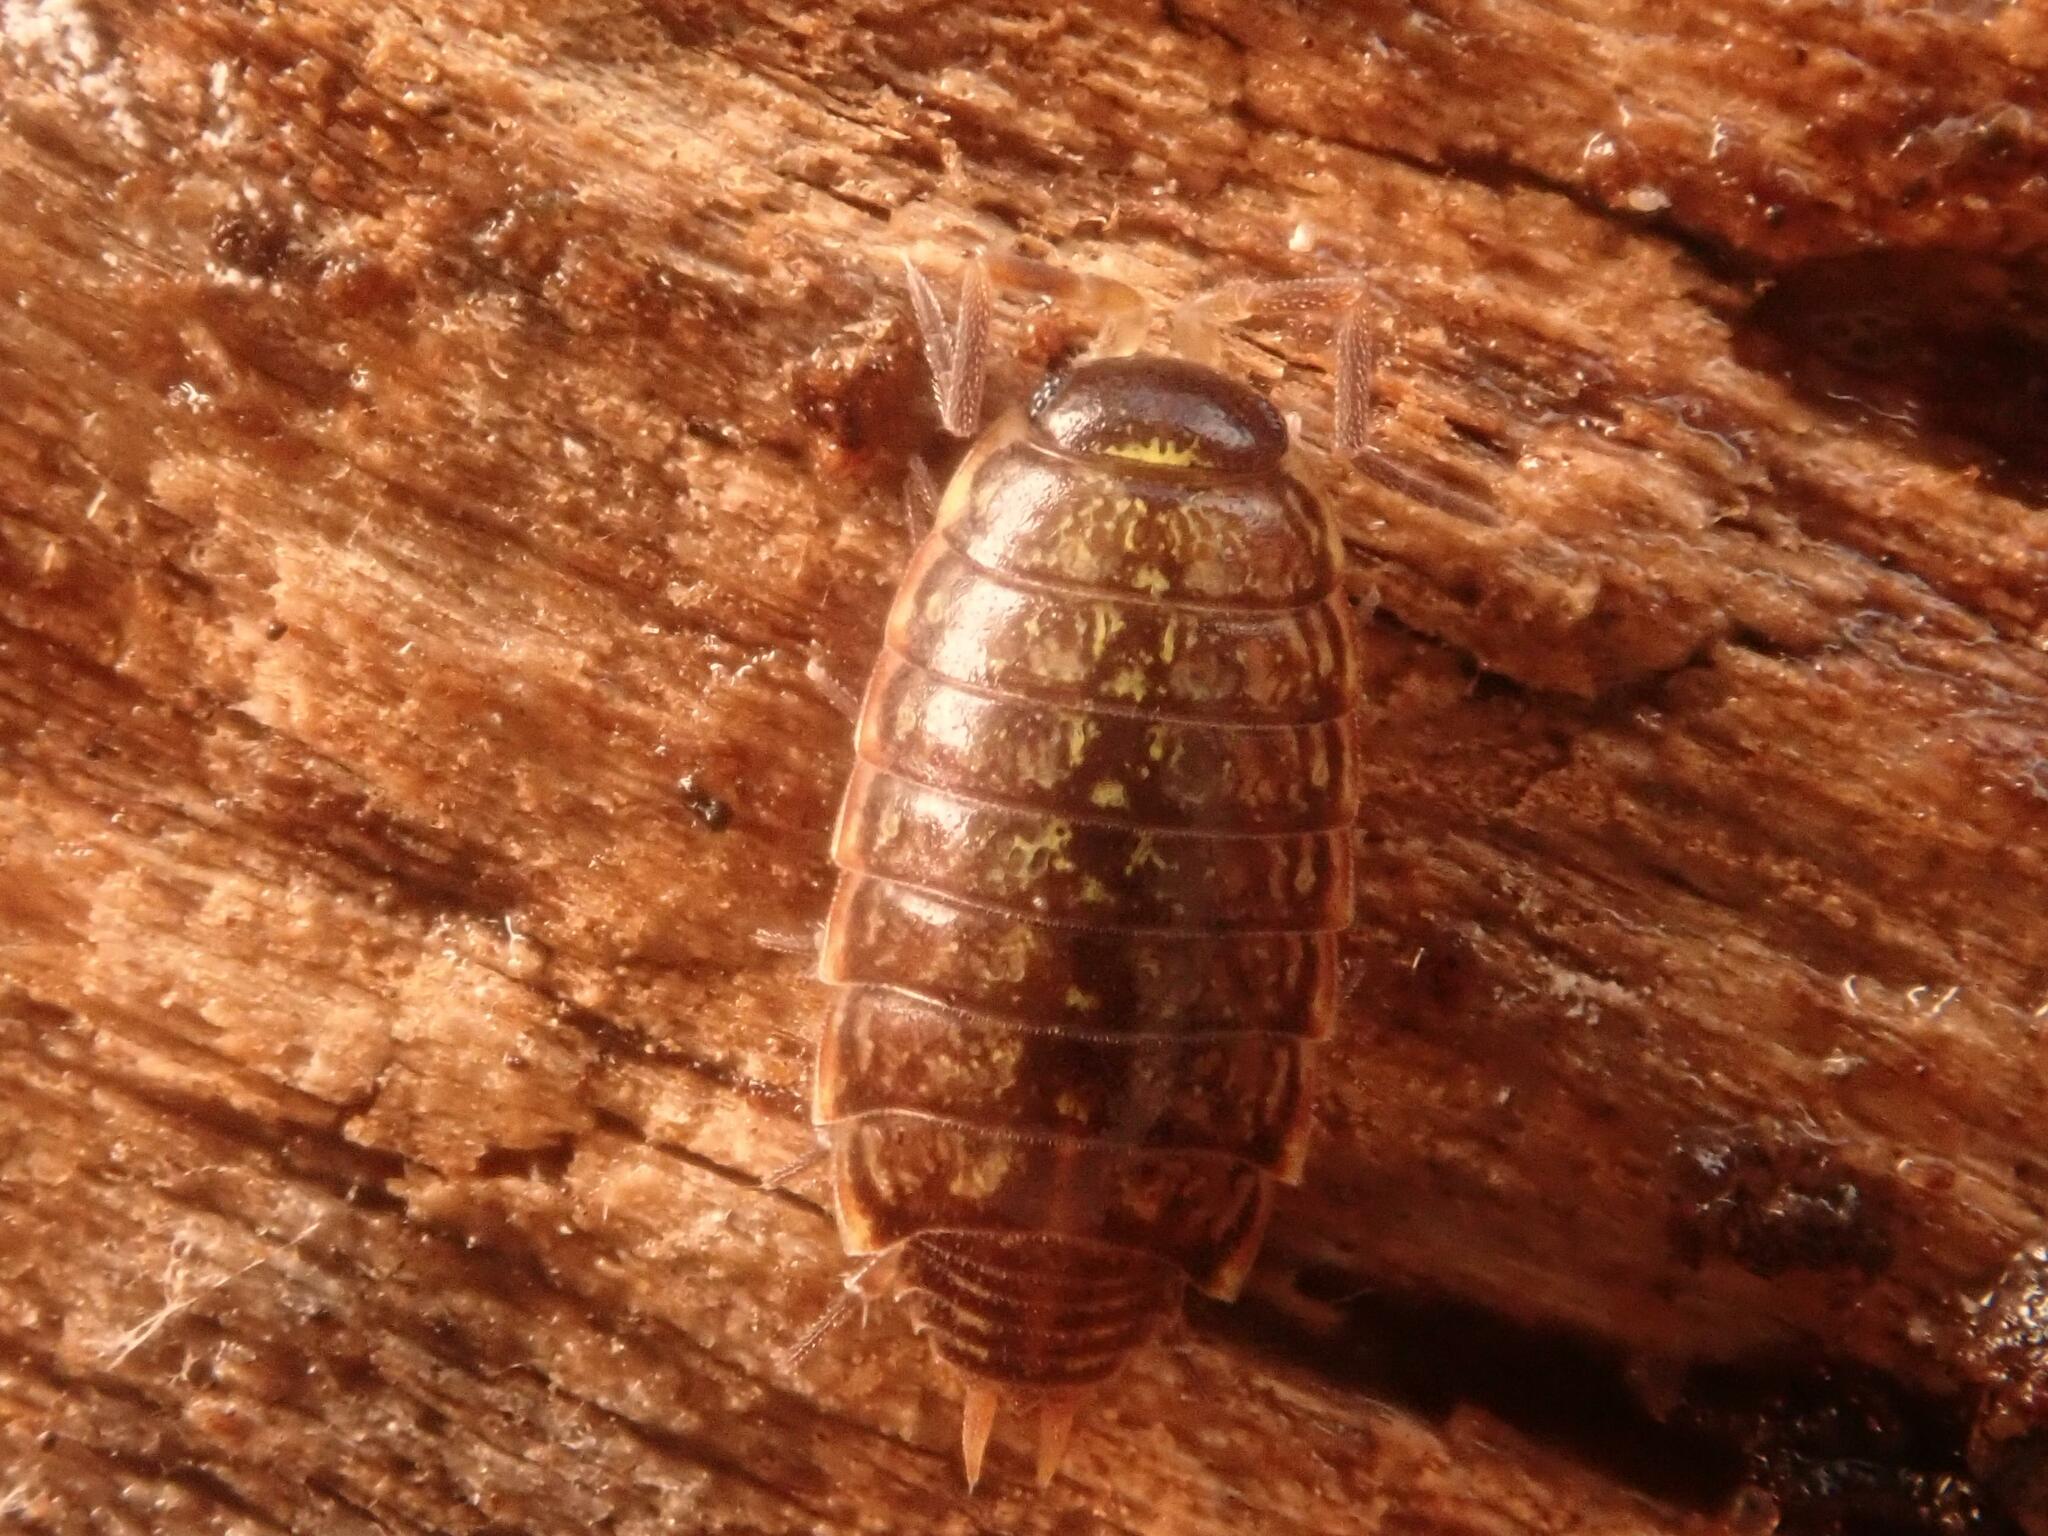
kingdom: Animalia
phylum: Arthropoda
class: Malacostraca
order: Isopoda
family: Philosciidae
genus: Philoscia
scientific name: Philoscia muscorum
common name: Common striped woodlouse
